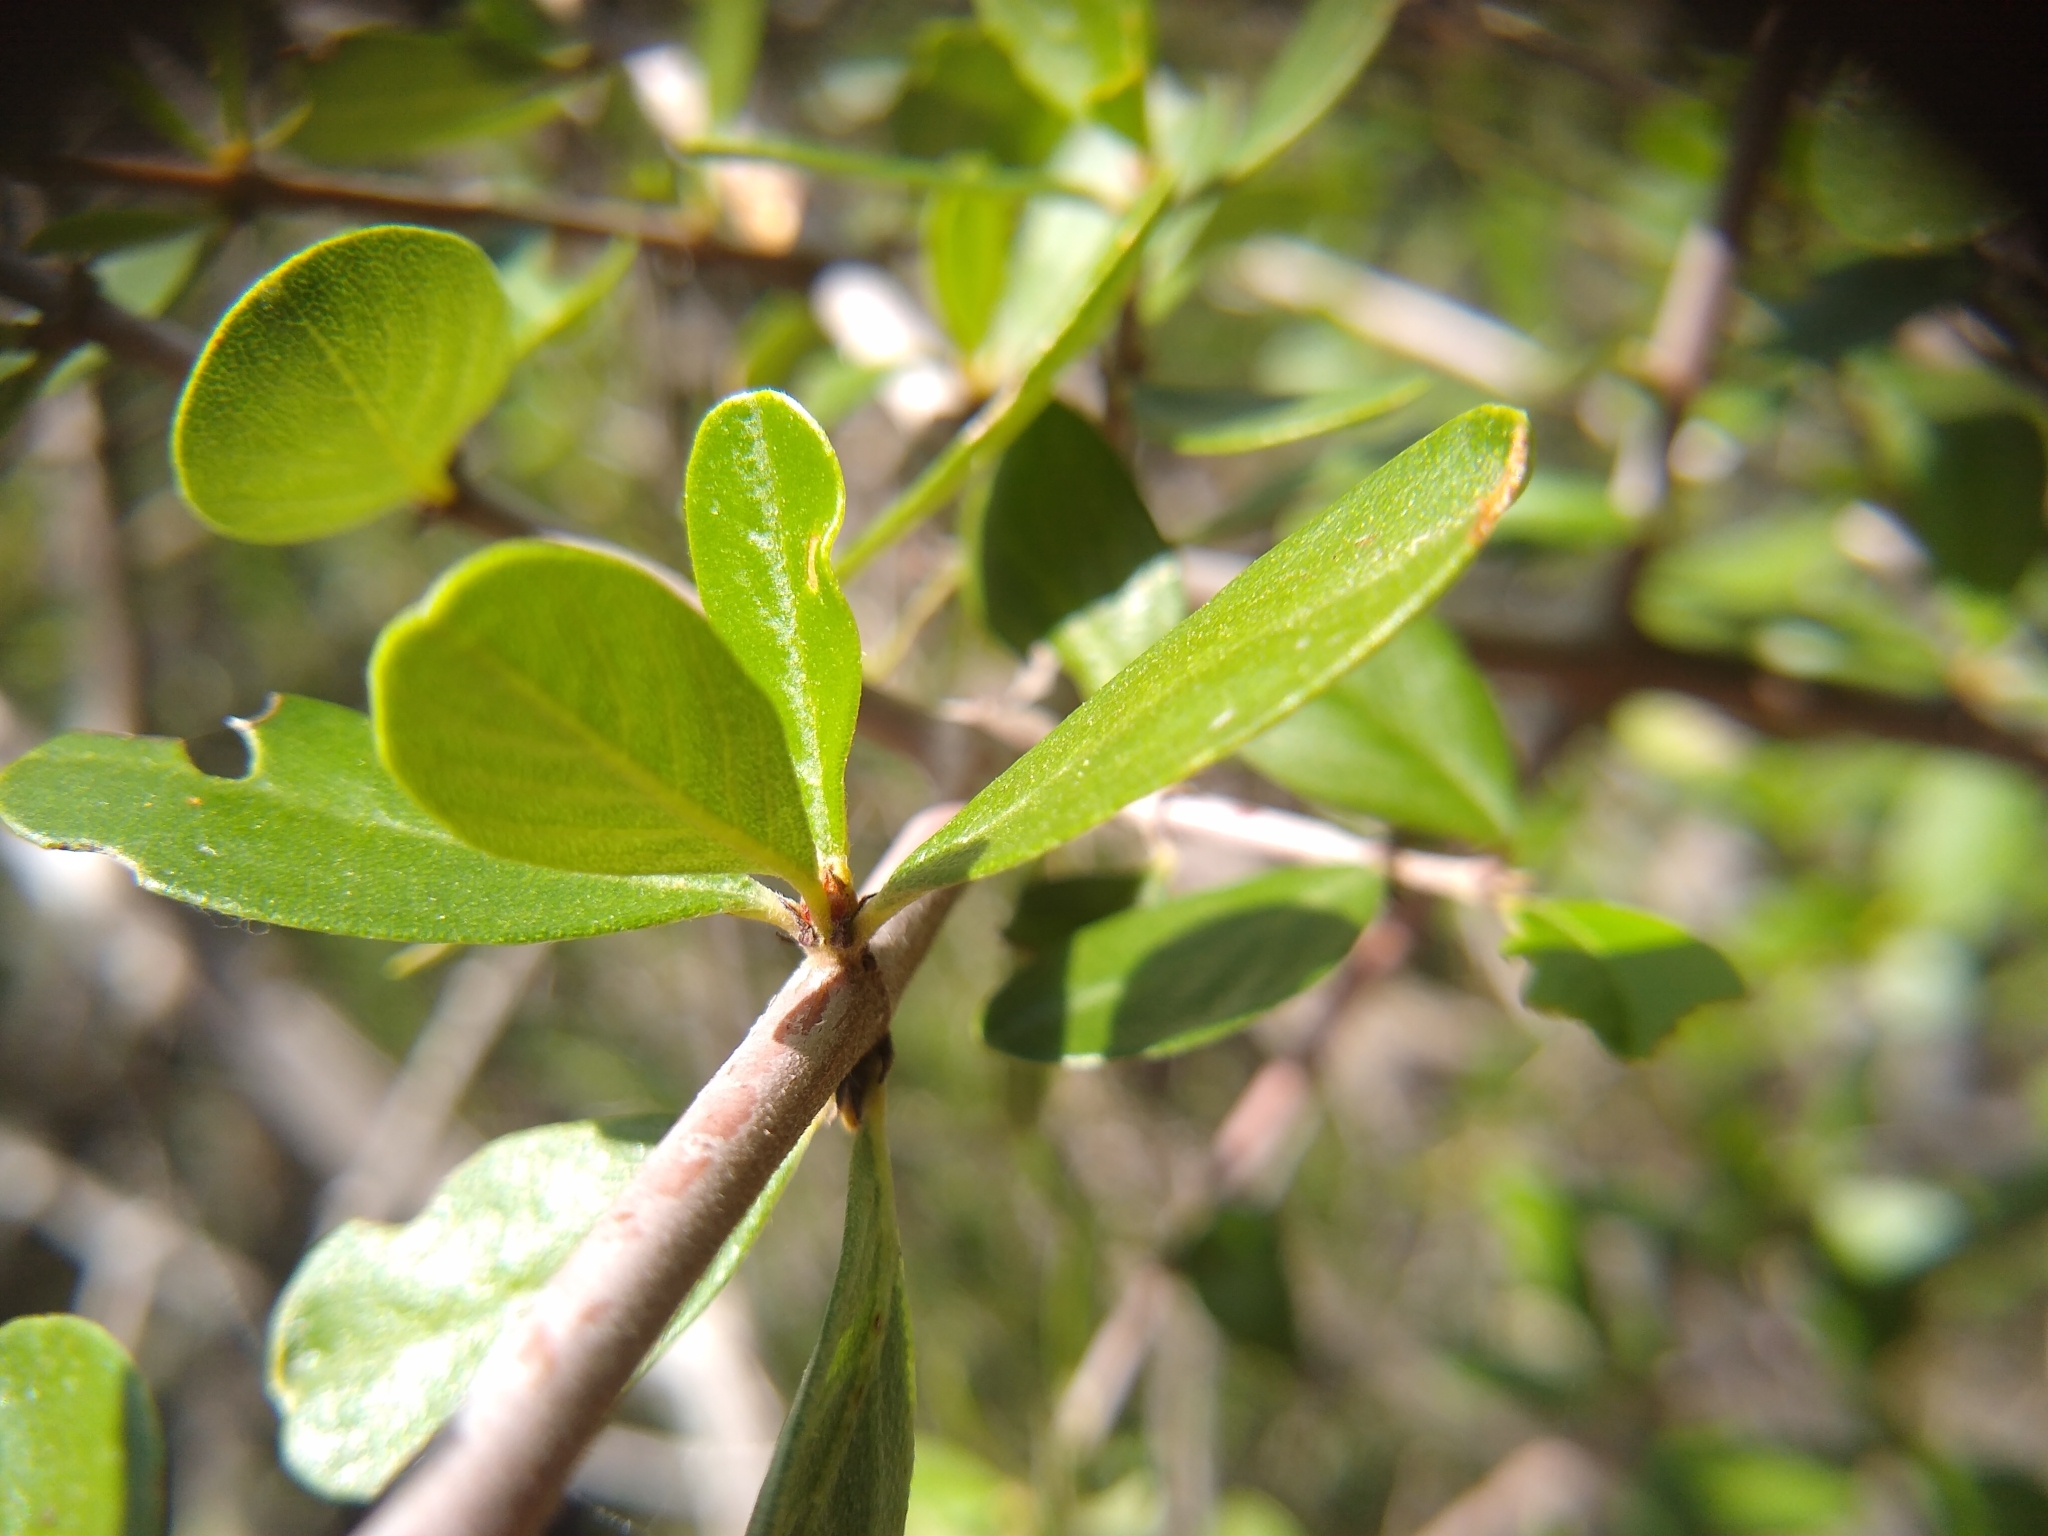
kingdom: Plantae
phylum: Tracheophyta
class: Magnoliopsida
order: Rosales
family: Rhamnaceae
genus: Ceanothus
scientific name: Ceanothus cuneatus
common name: Cuneate ceanothus
